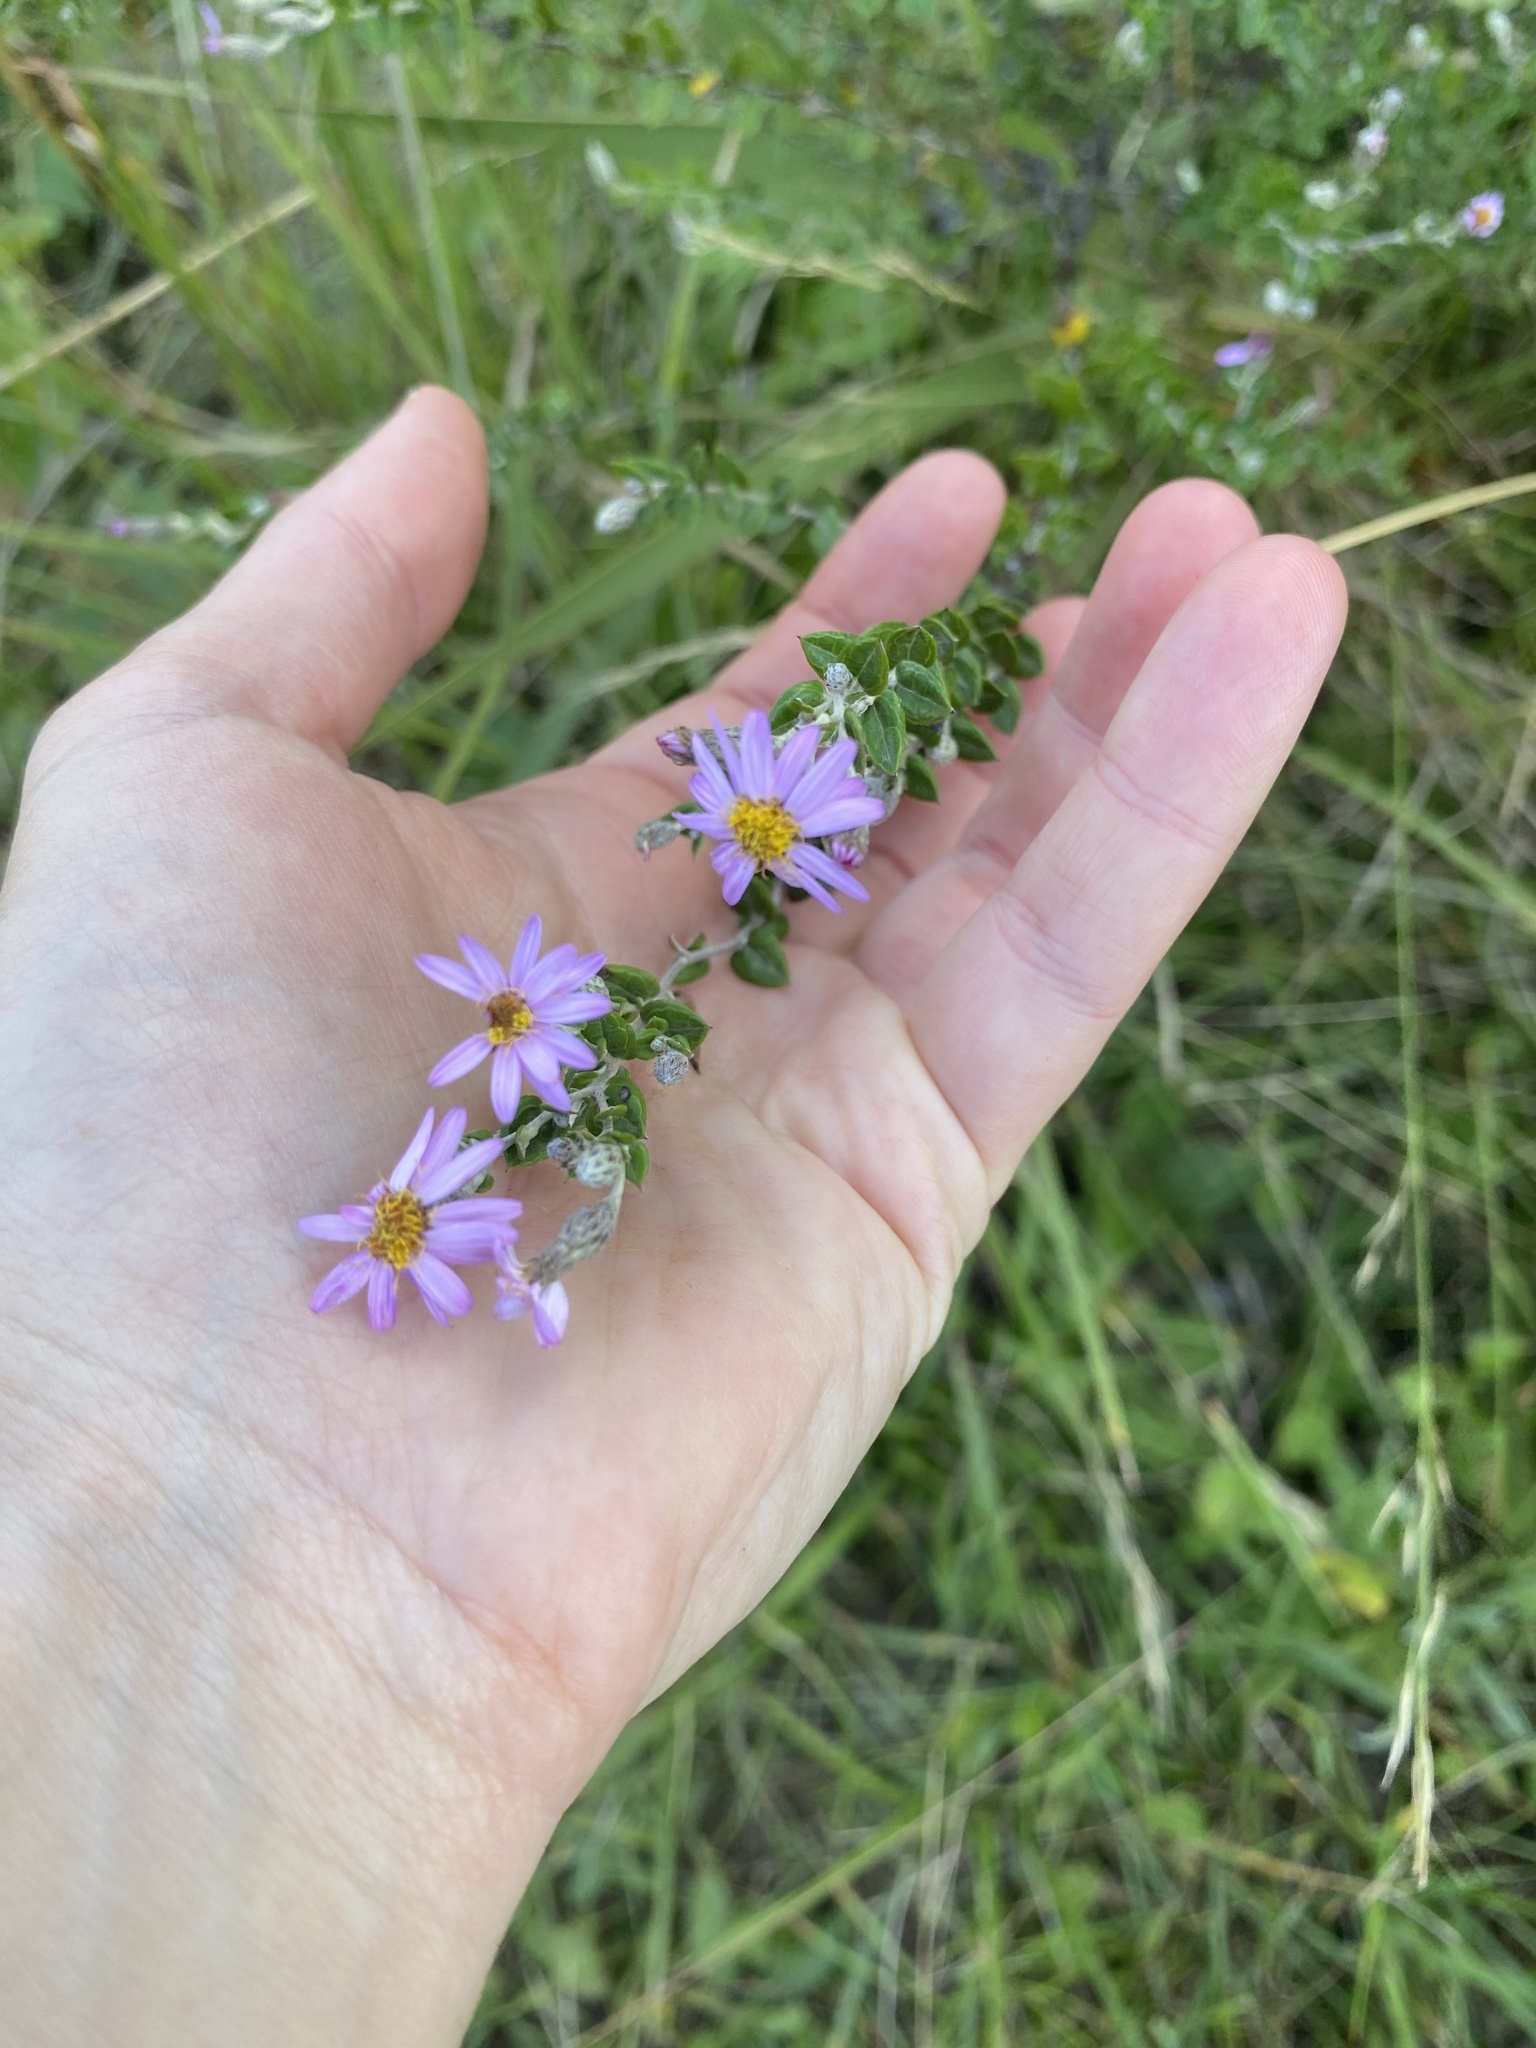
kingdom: Plantae
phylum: Tracheophyta
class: Magnoliopsida
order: Asterales
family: Asteraceae
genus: Athrixia
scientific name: Athrixia phylicoides
